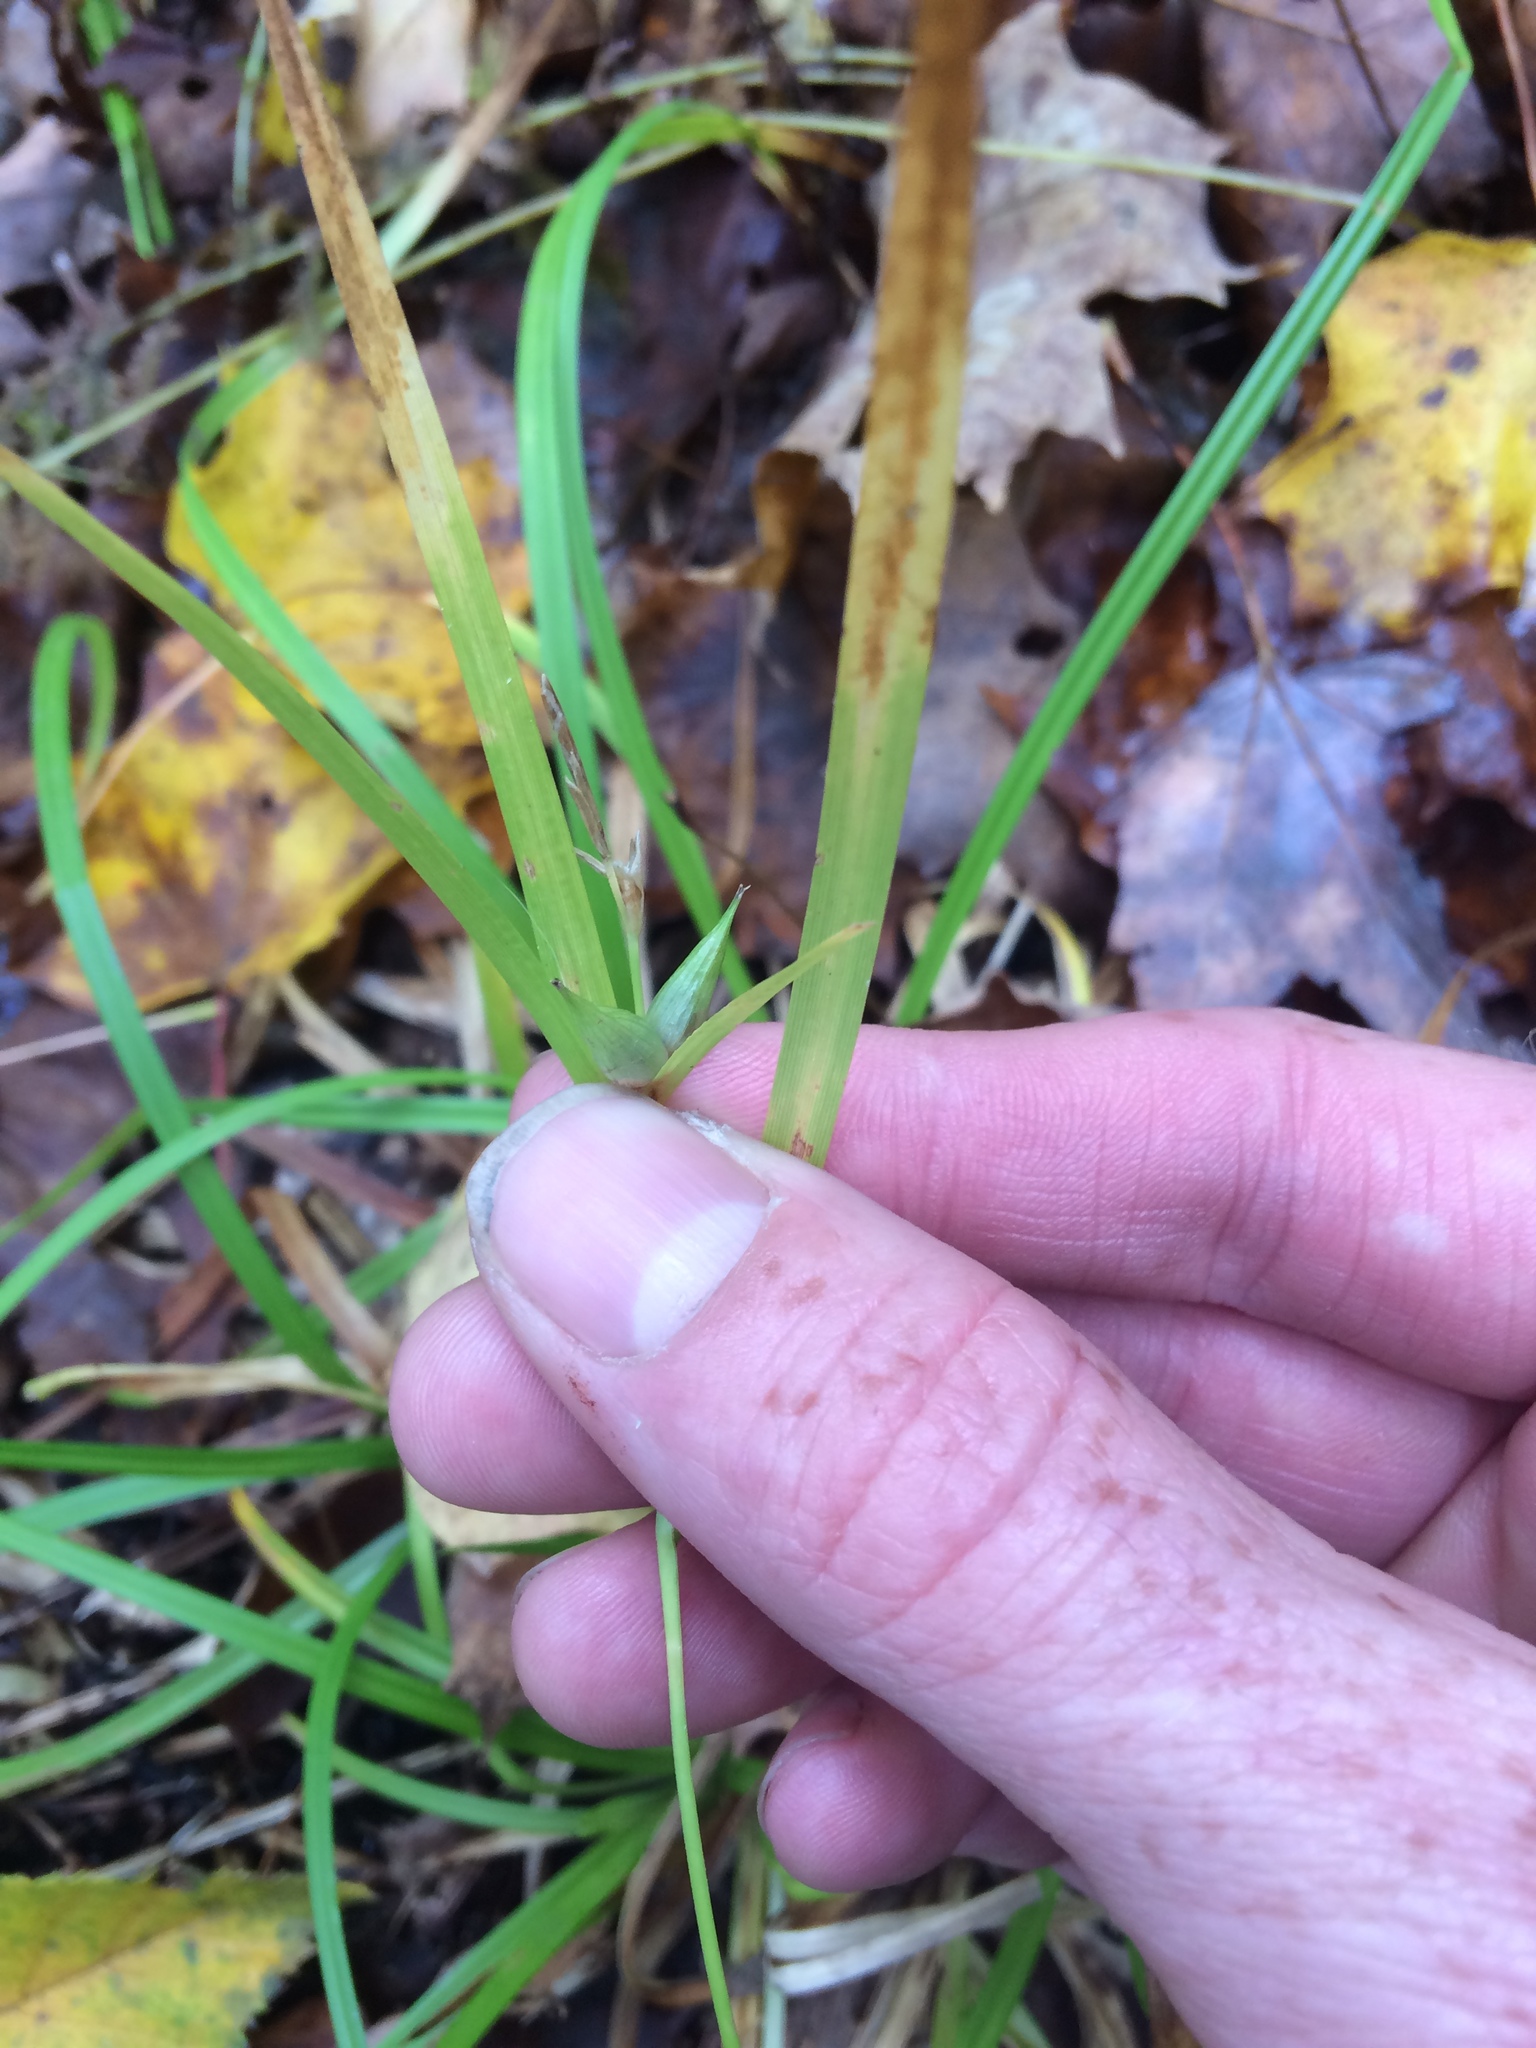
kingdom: Plantae
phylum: Tracheophyta
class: Liliopsida
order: Poales
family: Cyperaceae
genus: Carex
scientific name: Carex intumescens
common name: Greater bladder sedge
